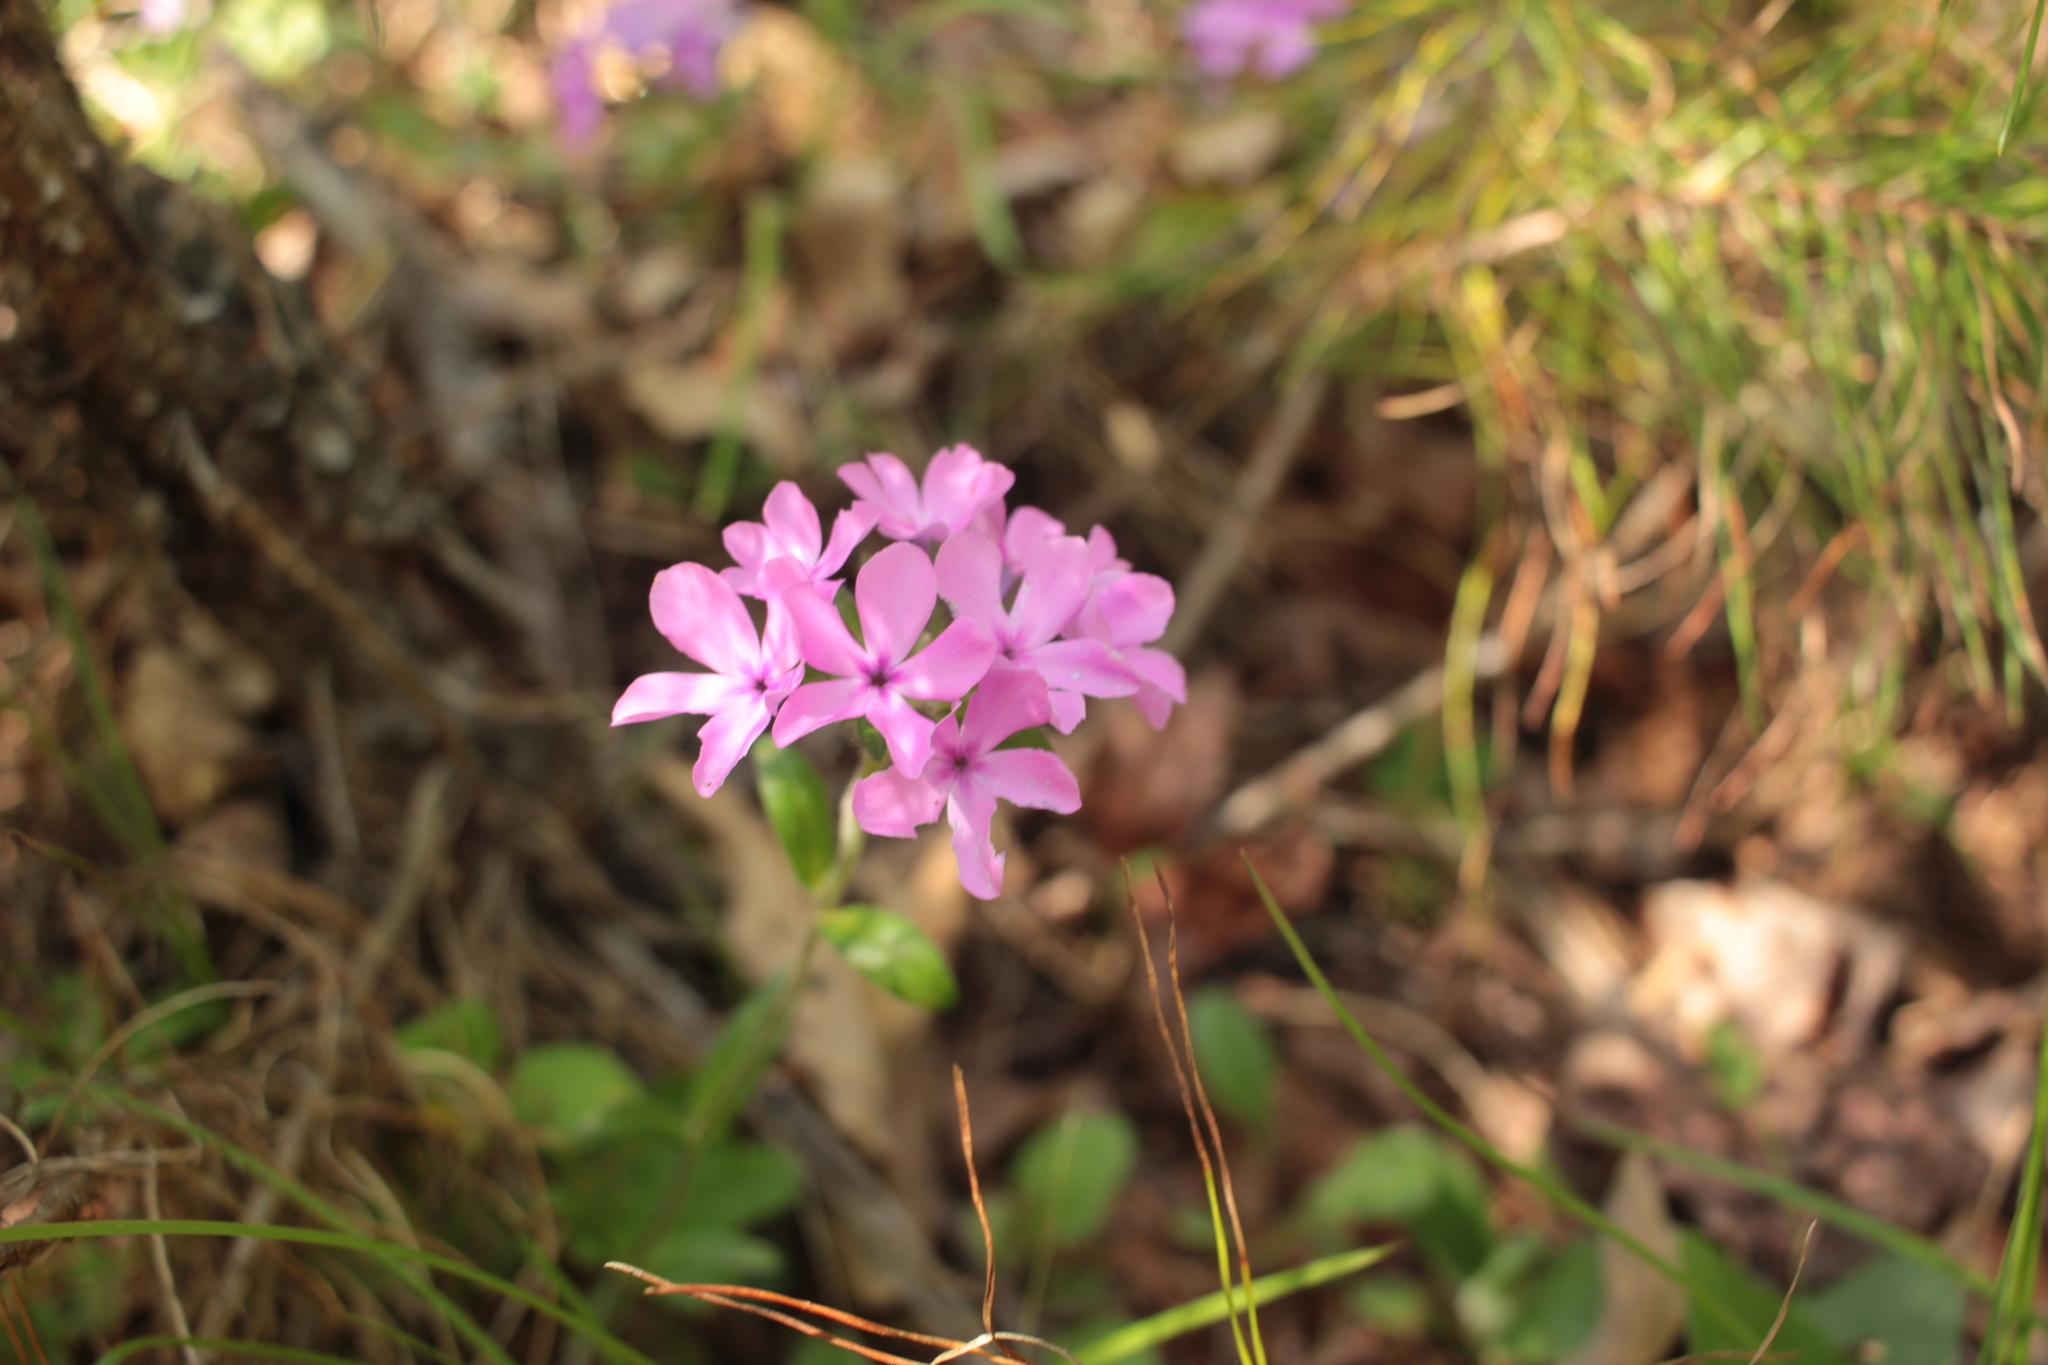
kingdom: Plantae
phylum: Tracheophyta
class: Magnoliopsida
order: Ericales
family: Polemoniaceae
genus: Phlox
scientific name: Phlox amoena
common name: Hairy phlox
